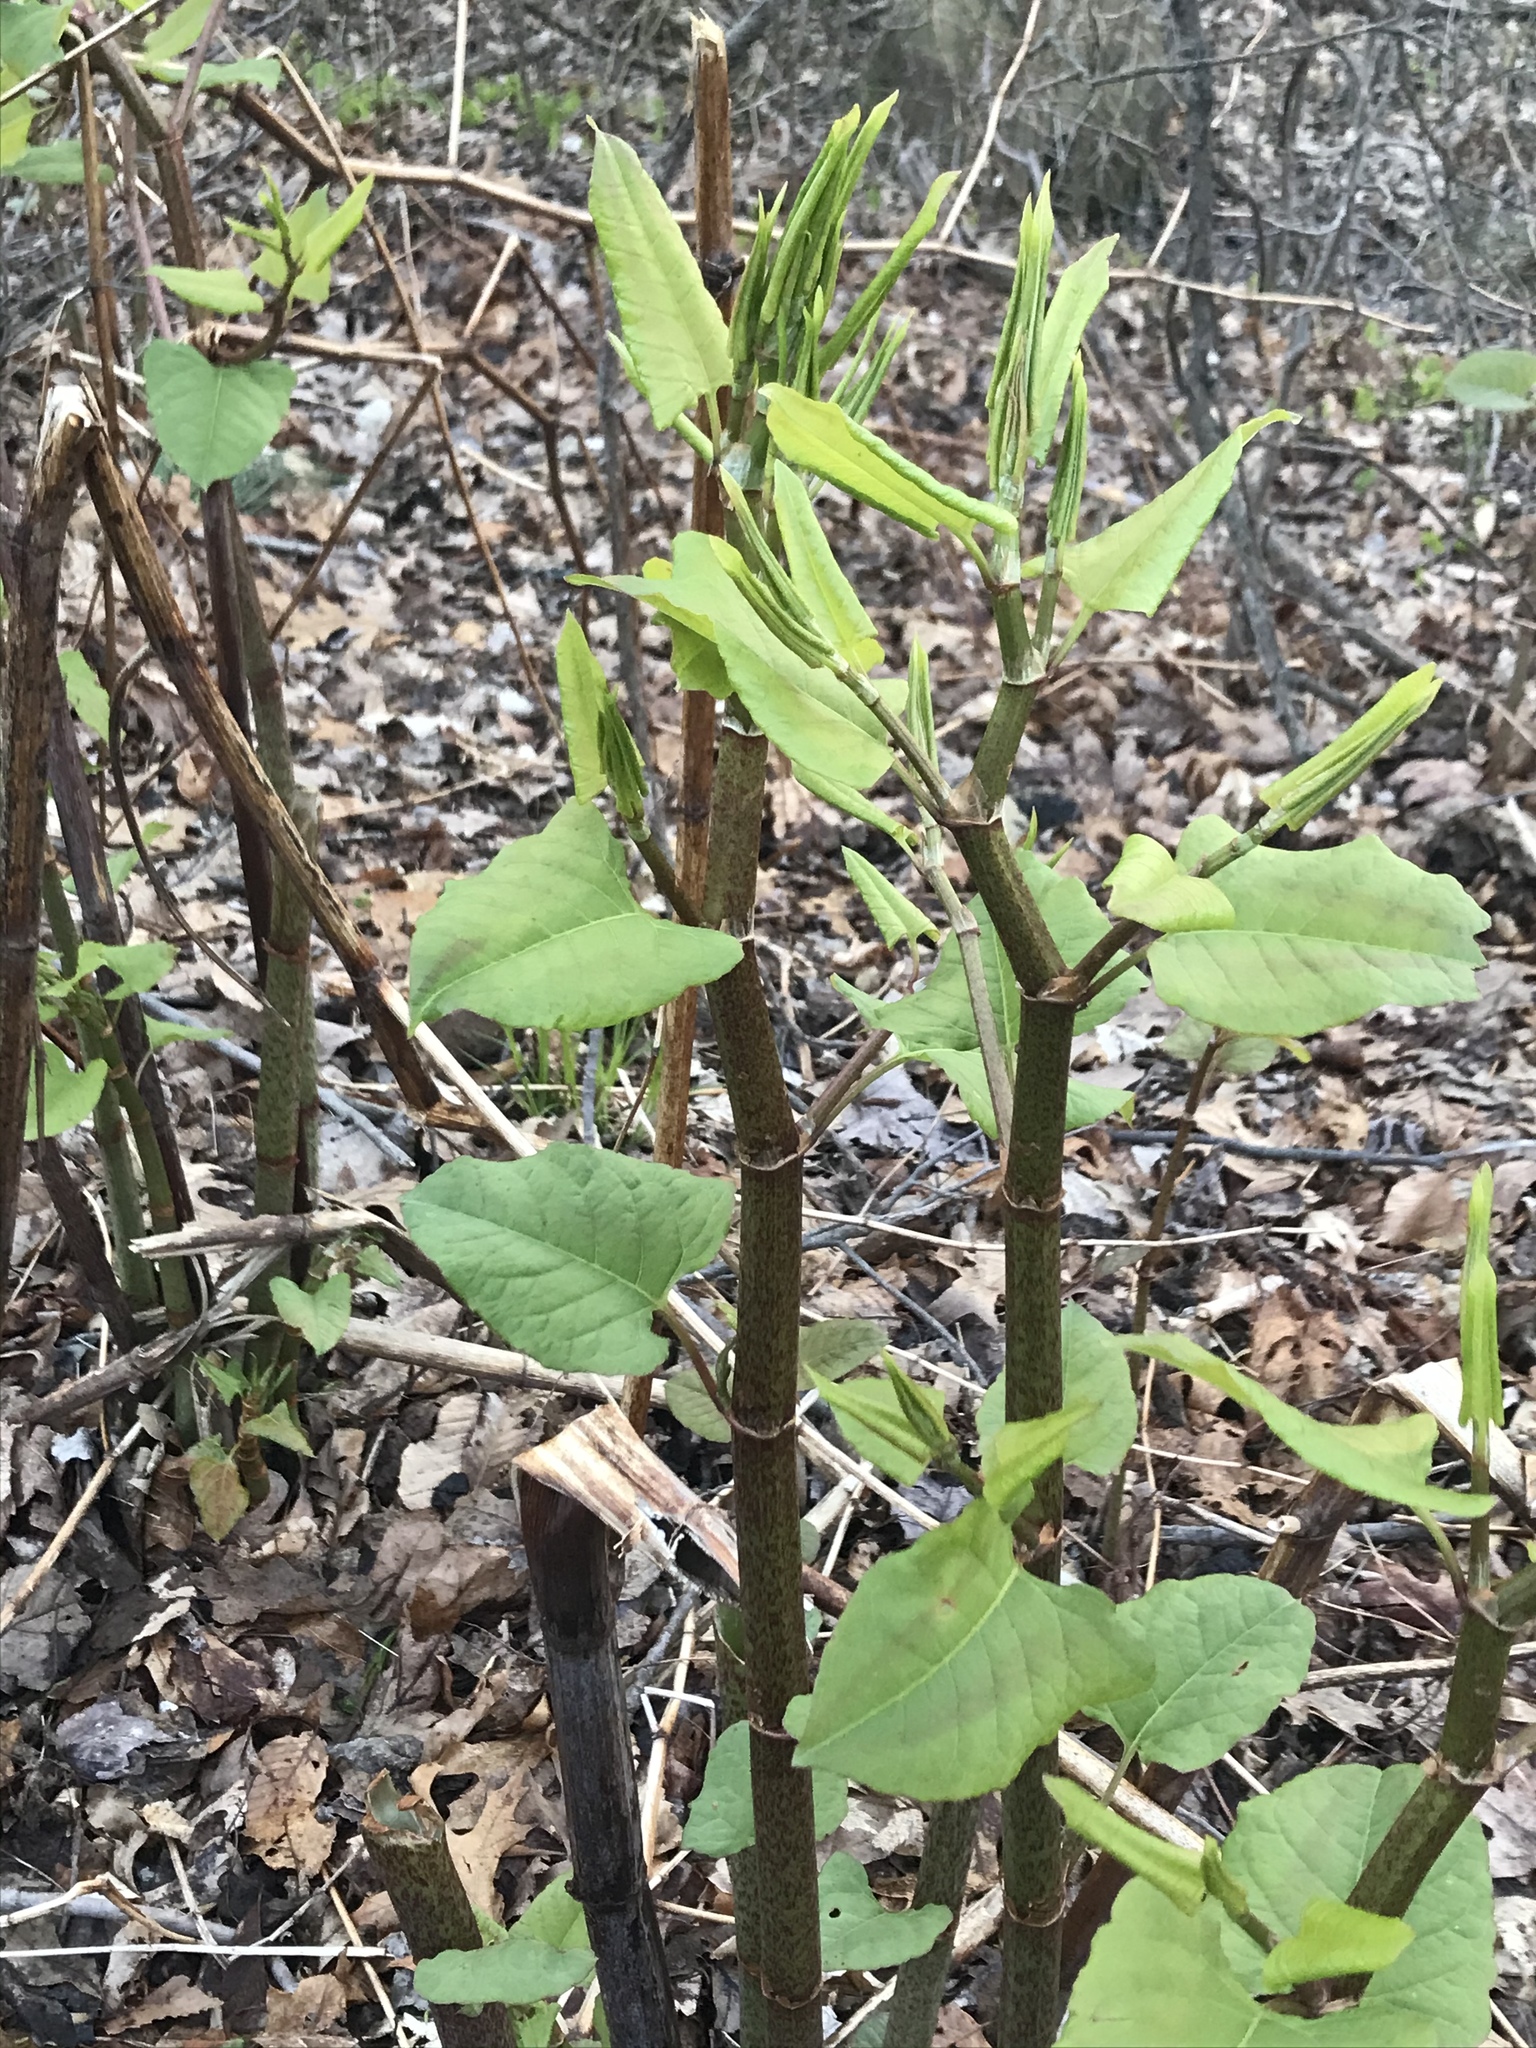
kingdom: Plantae
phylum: Tracheophyta
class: Magnoliopsida
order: Caryophyllales
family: Polygonaceae
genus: Reynoutria
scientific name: Reynoutria japonica
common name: Japanese knotweed
